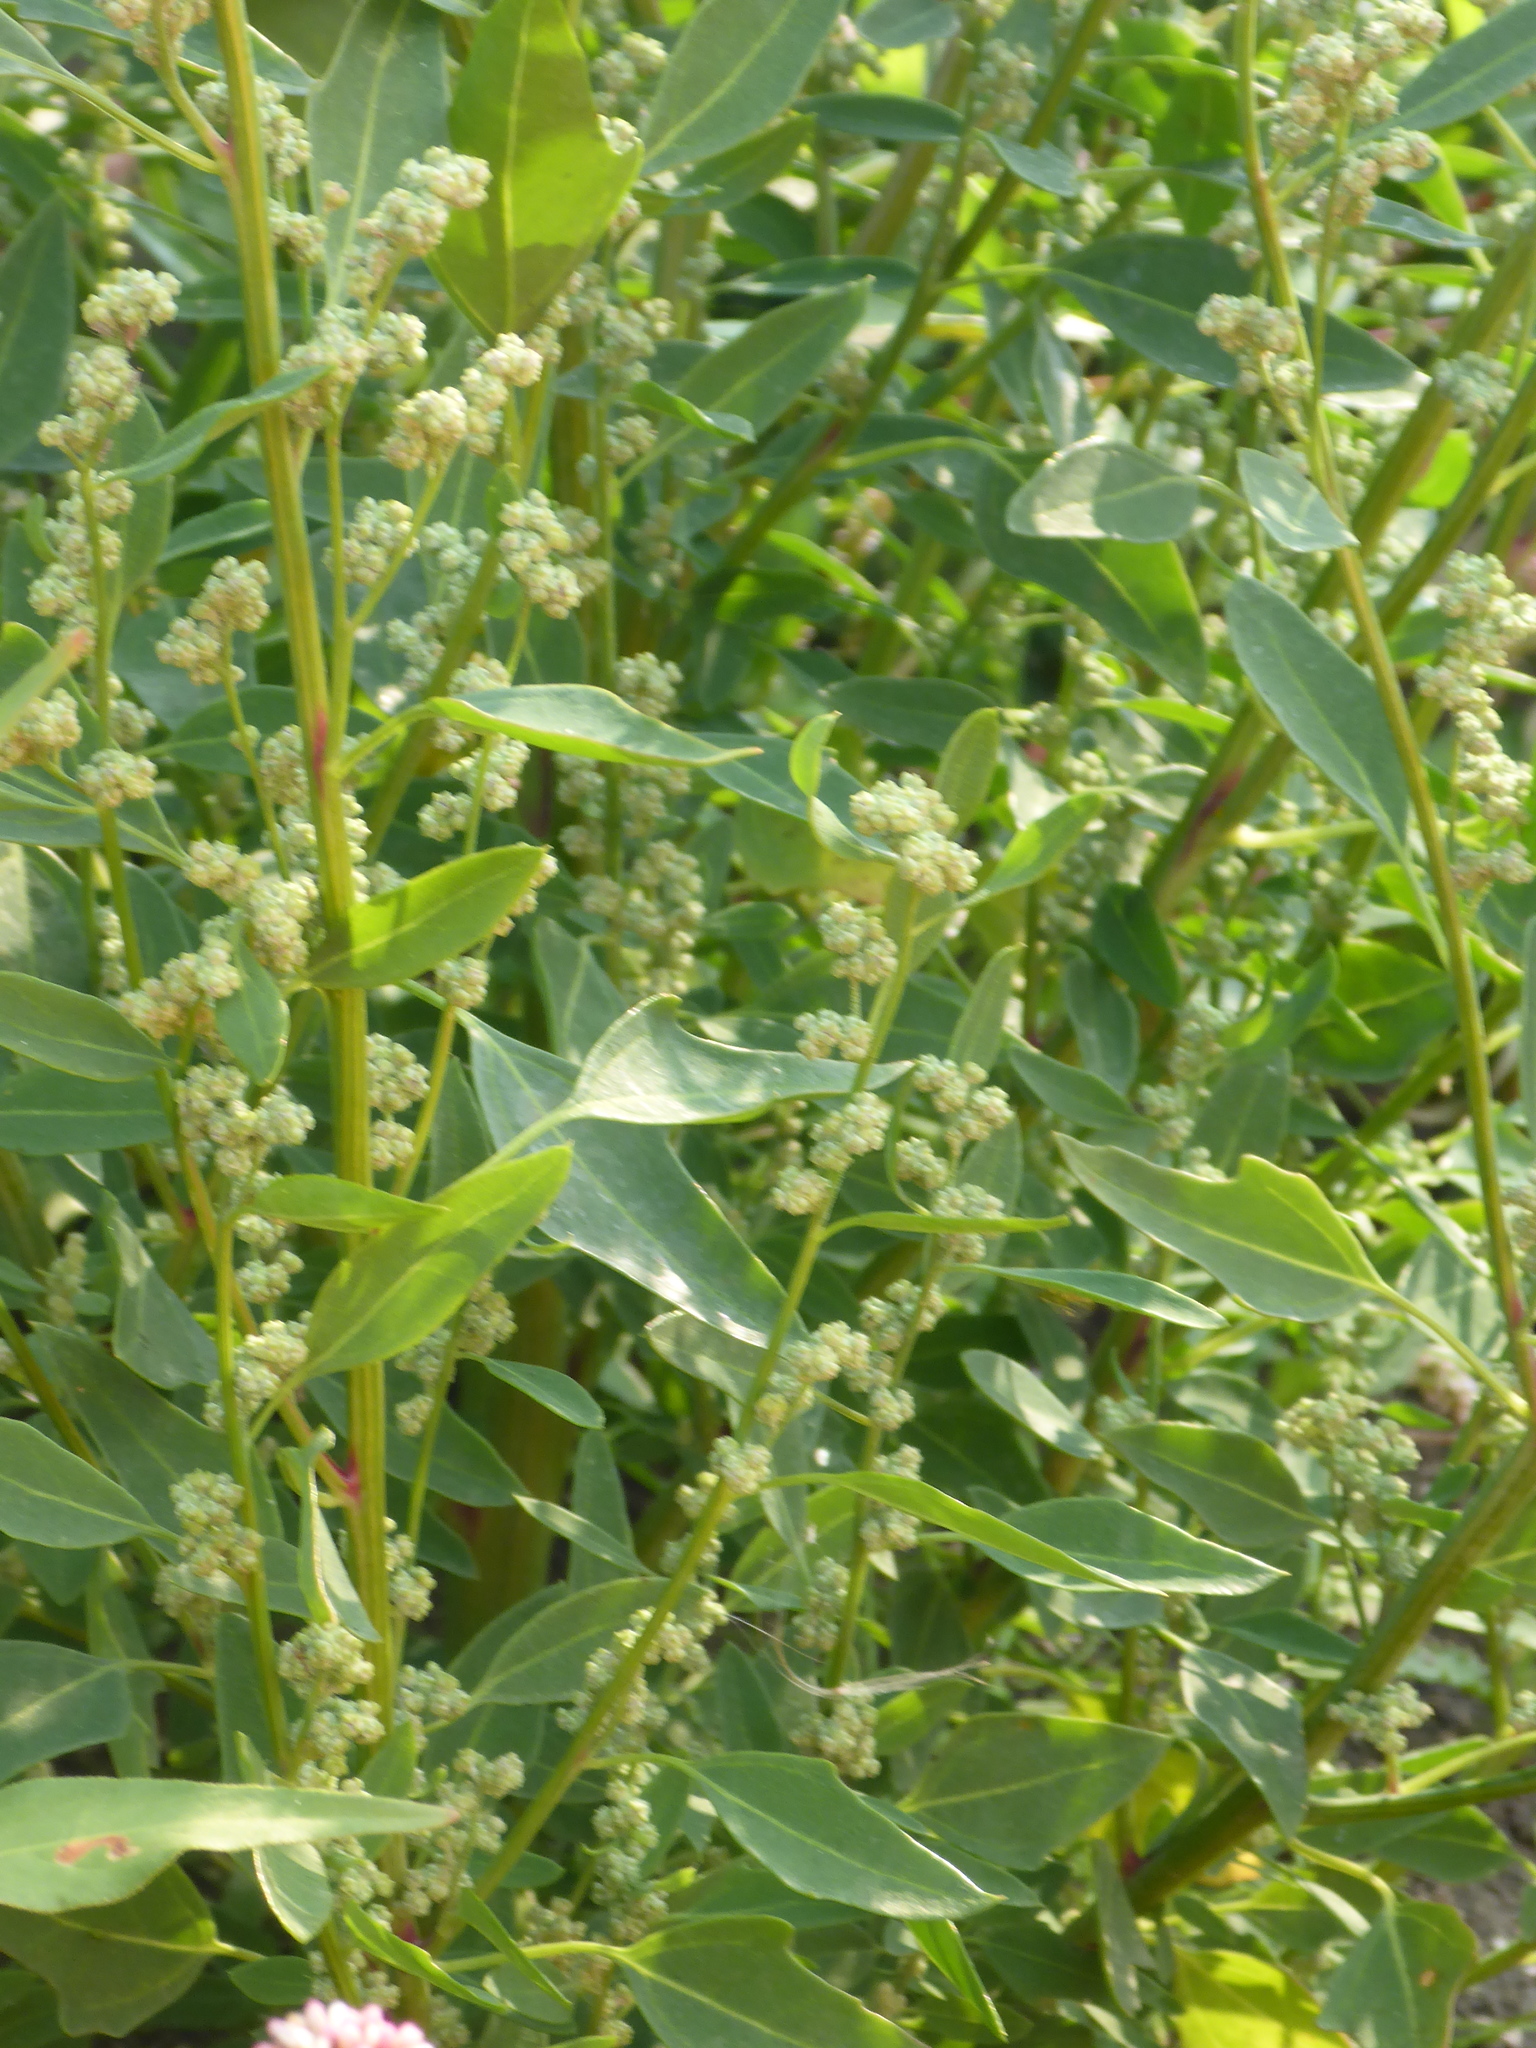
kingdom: Plantae
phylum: Tracheophyta
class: Magnoliopsida
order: Caryophyllales
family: Amaranthaceae
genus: Chenopodium
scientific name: Chenopodium album
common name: Fat-hen
